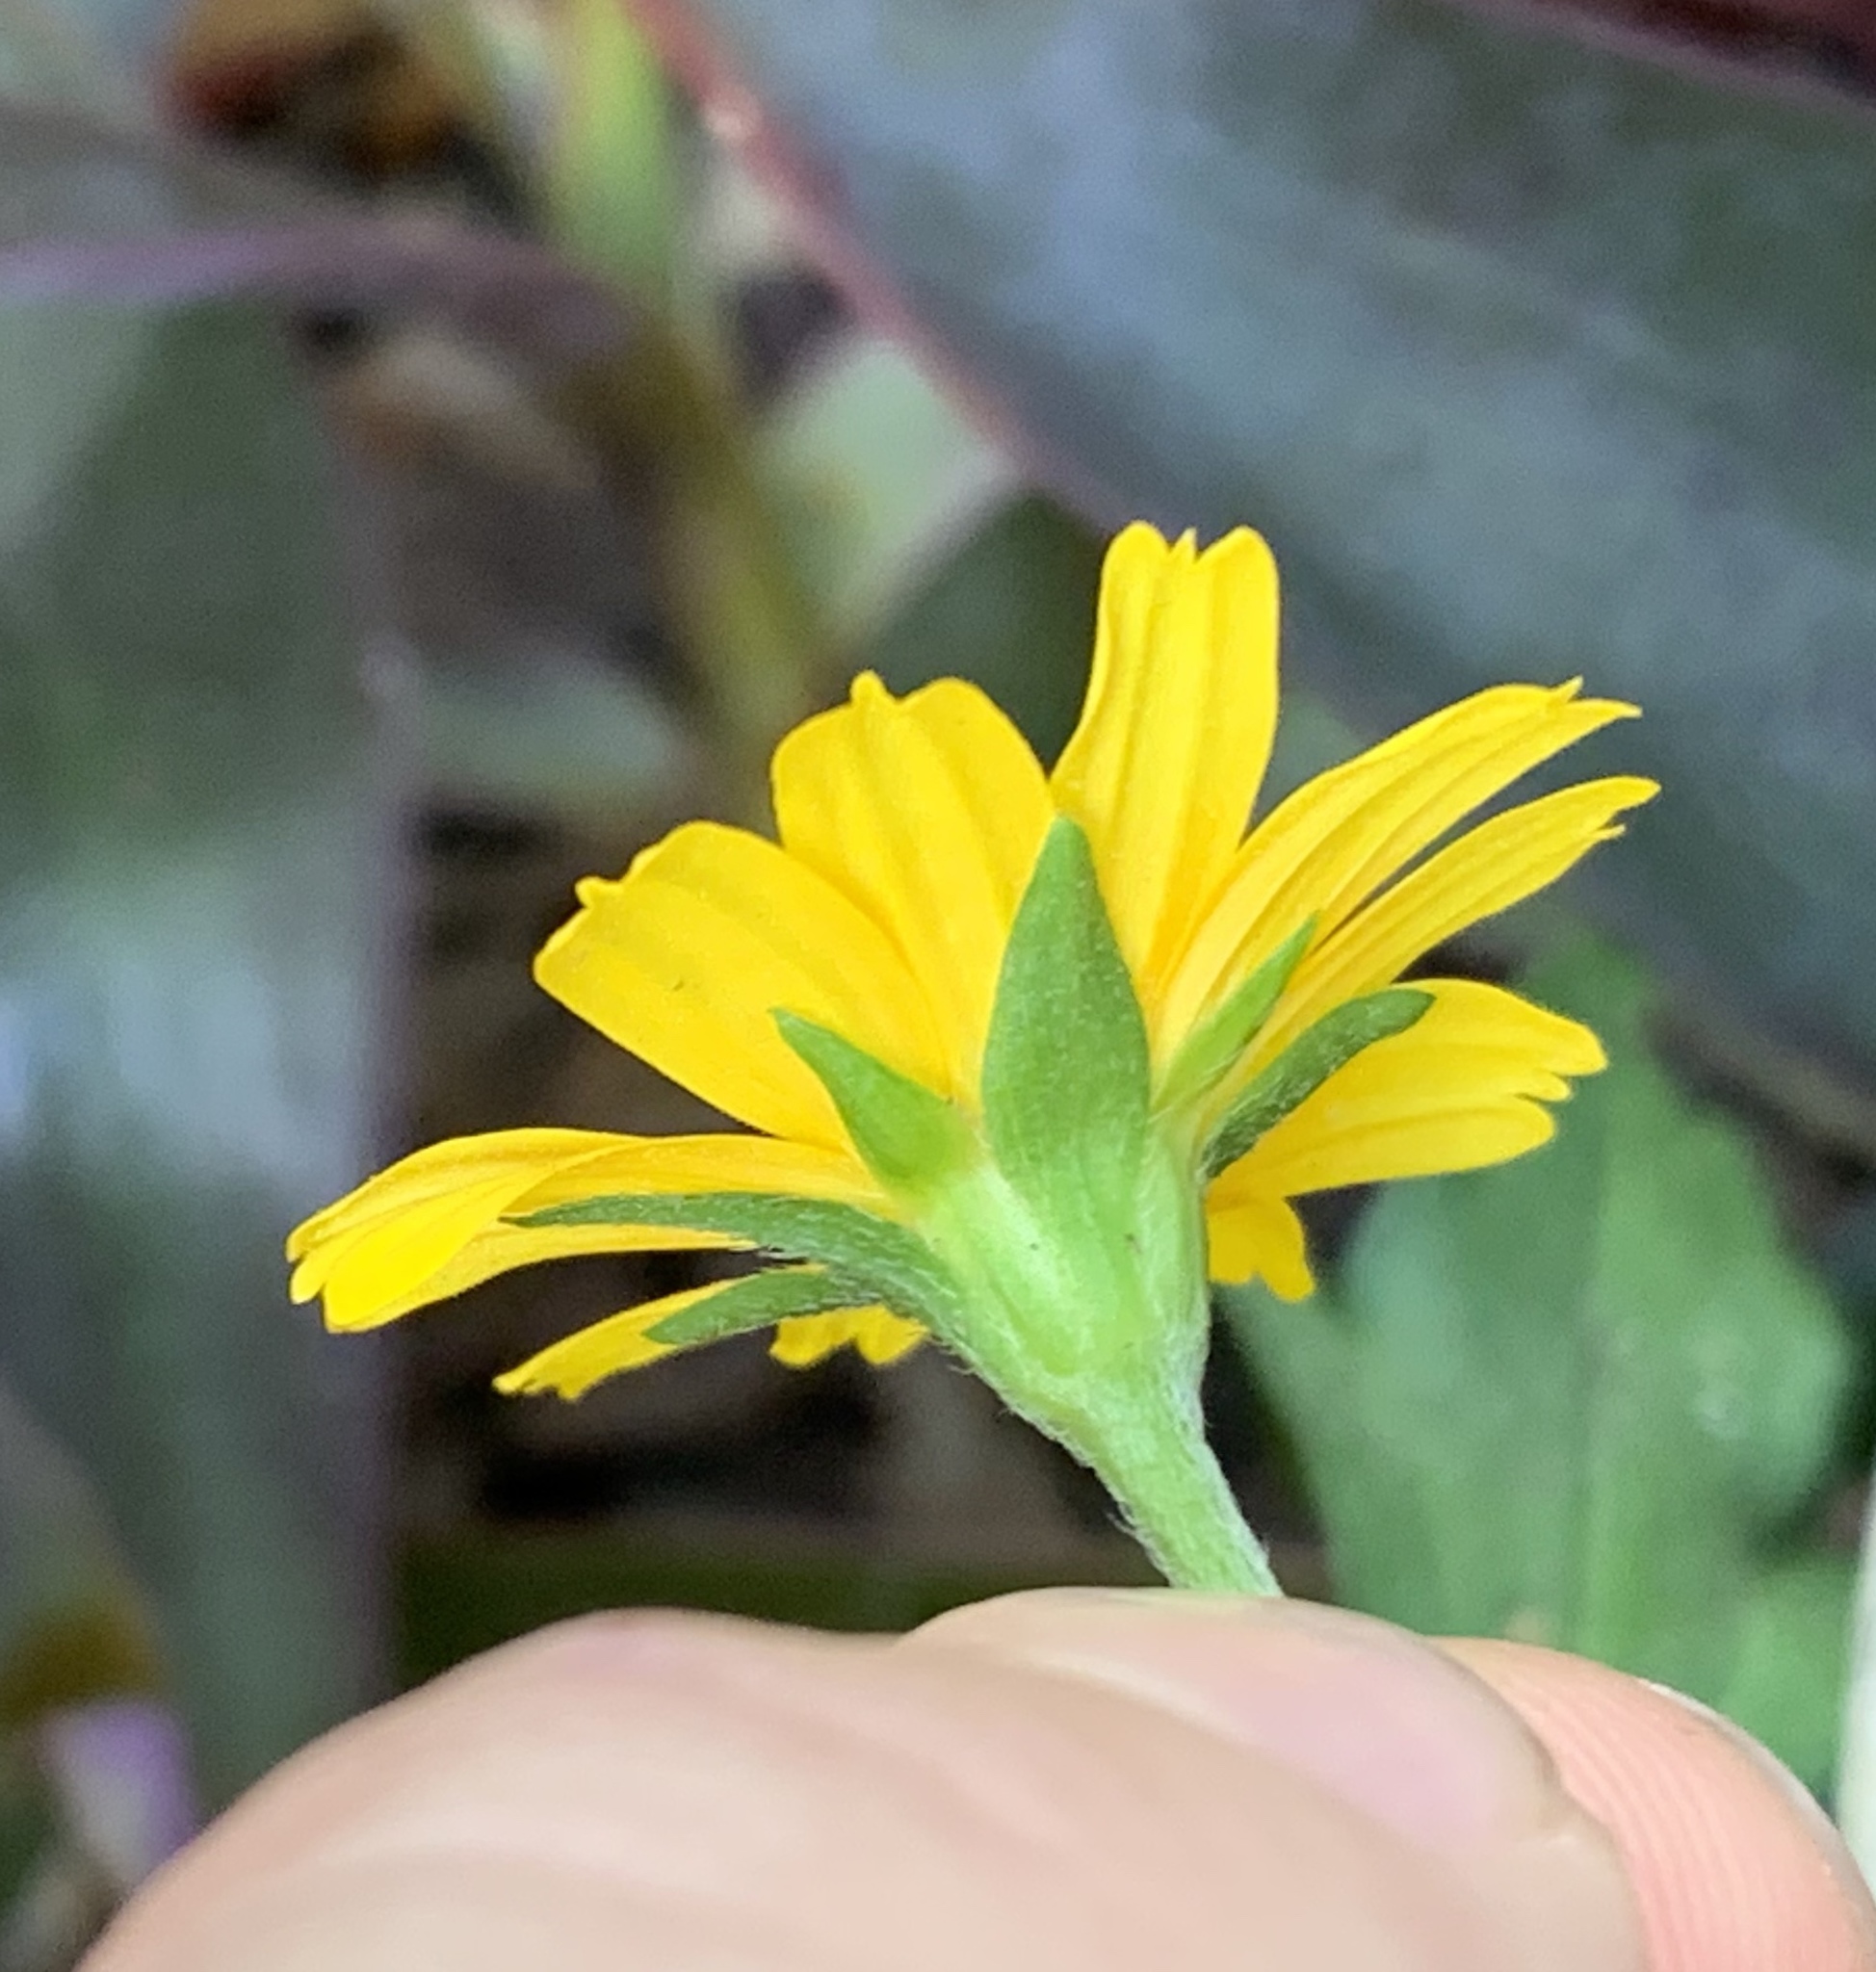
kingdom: Plantae
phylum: Tracheophyta
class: Magnoliopsida
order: Asterales
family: Asteraceae
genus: Sphagneticola
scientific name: Sphagneticola trilobata
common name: Bay biscayne creeping-oxeye
